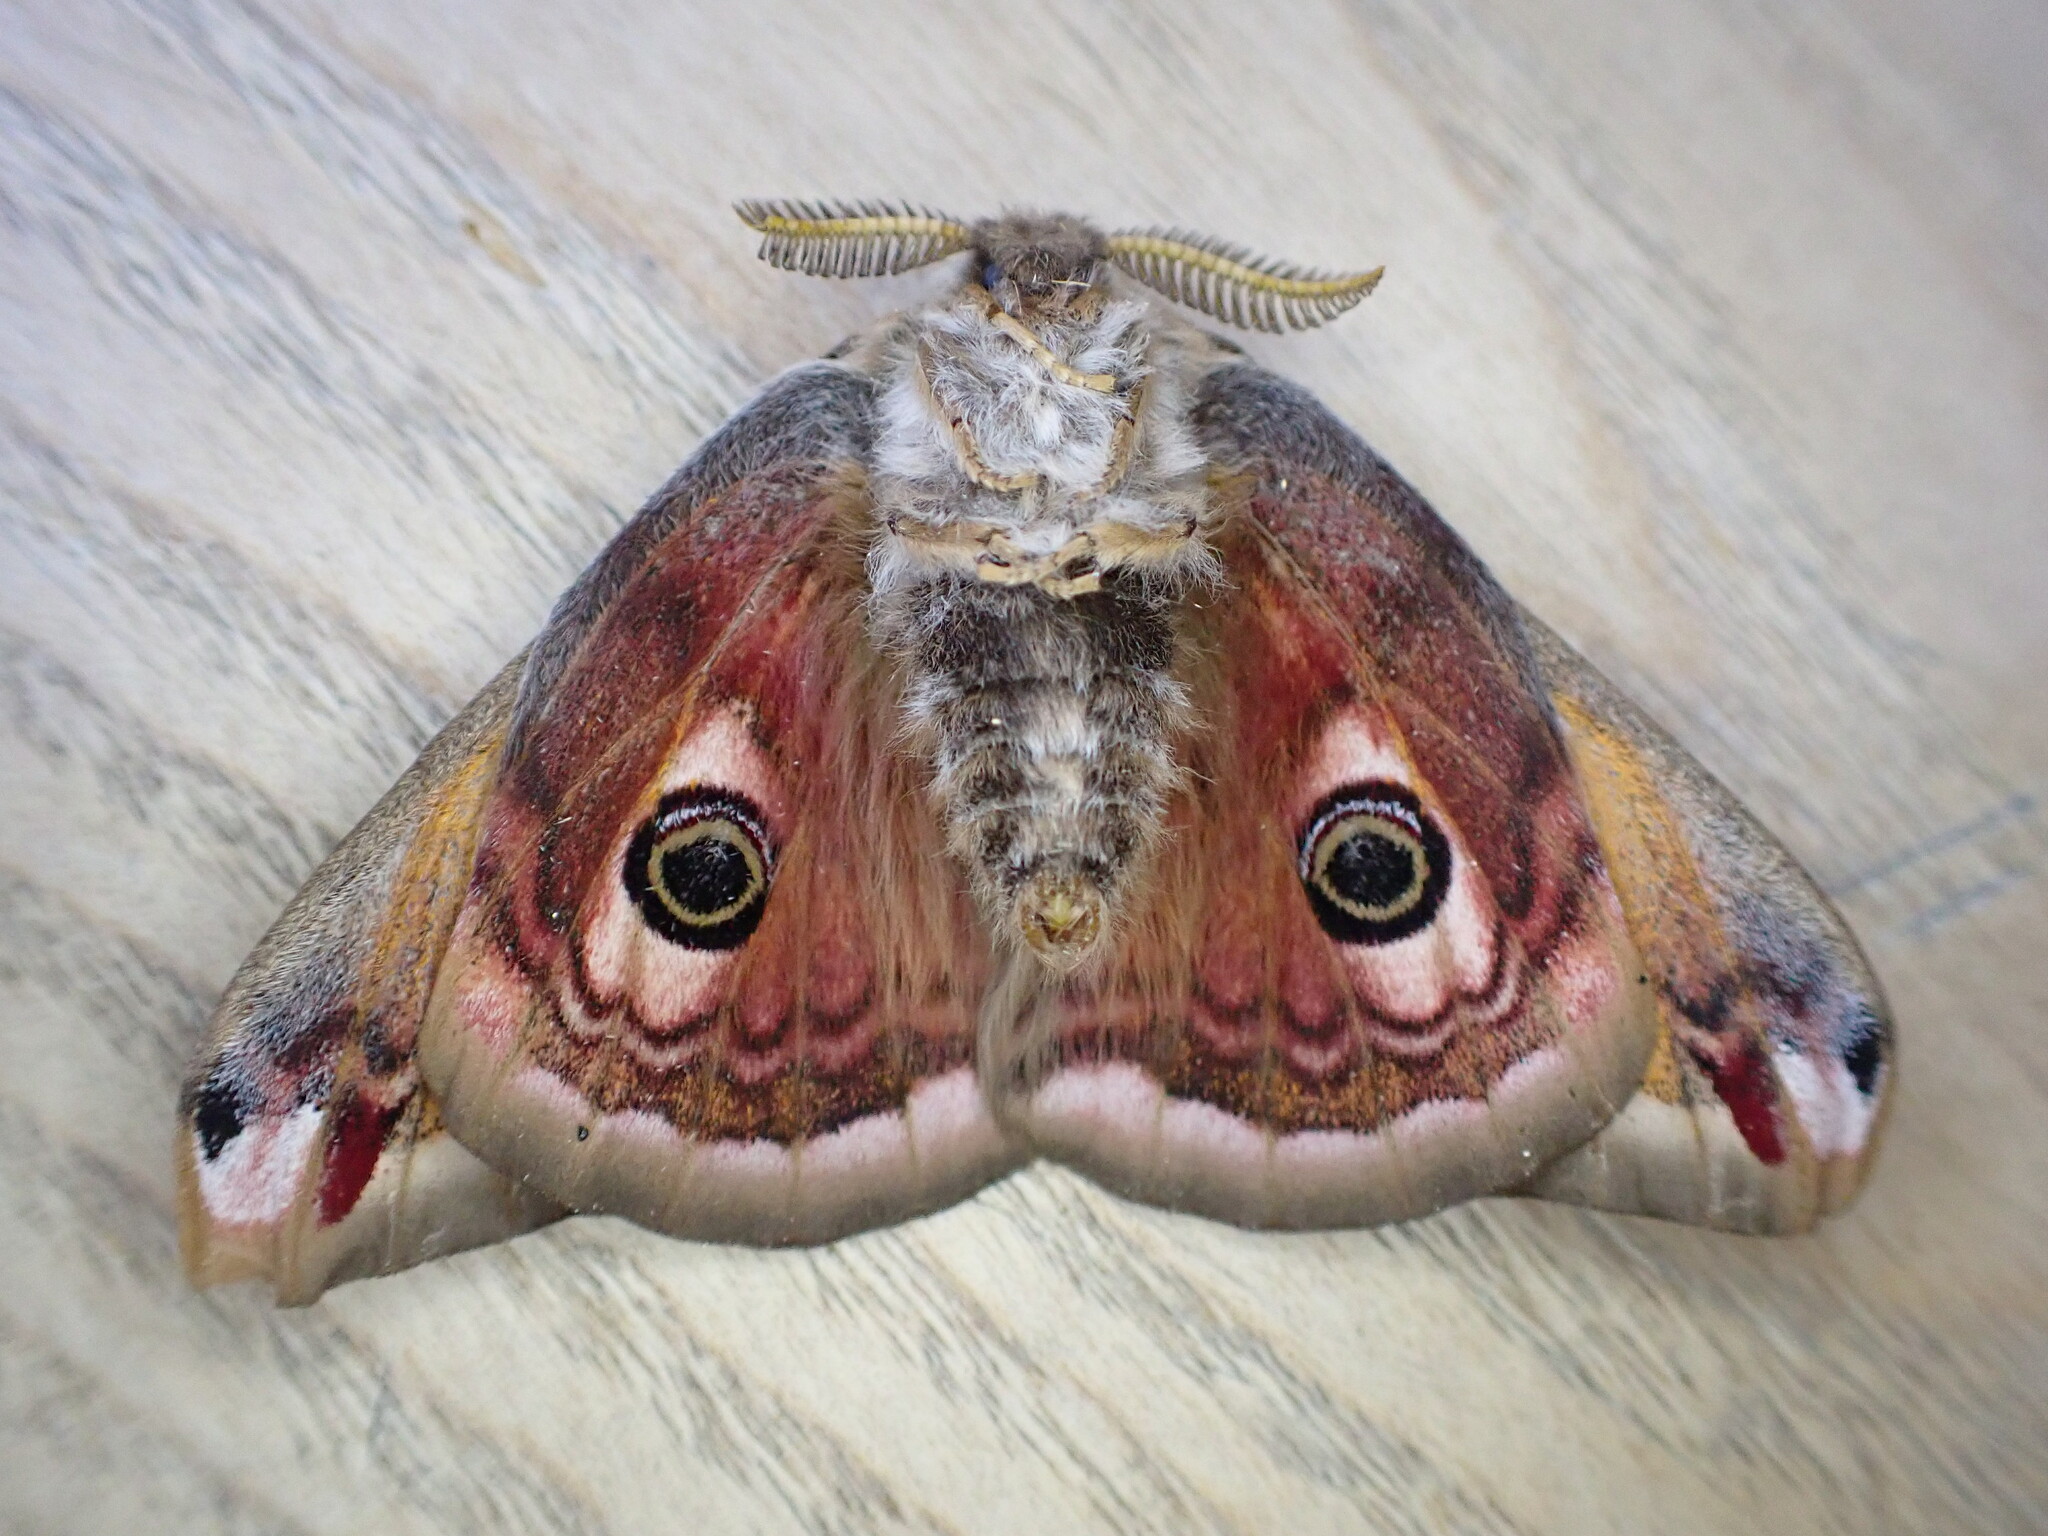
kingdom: Animalia
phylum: Arthropoda
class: Insecta
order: Lepidoptera
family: Saturniidae
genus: Saturnia
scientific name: Saturnia pavonia
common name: Emperor moth
